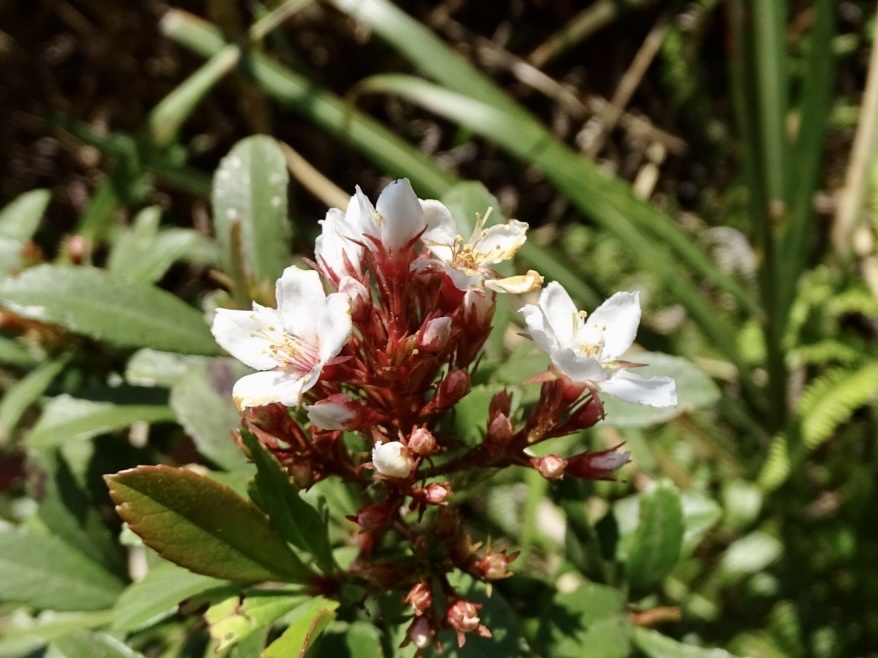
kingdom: Plantae
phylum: Tracheophyta
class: Magnoliopsida
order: Rosales
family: Rosaceae
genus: Rhaphiolepis
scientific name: Rhaphiolepis indica
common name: India-hawthorn
